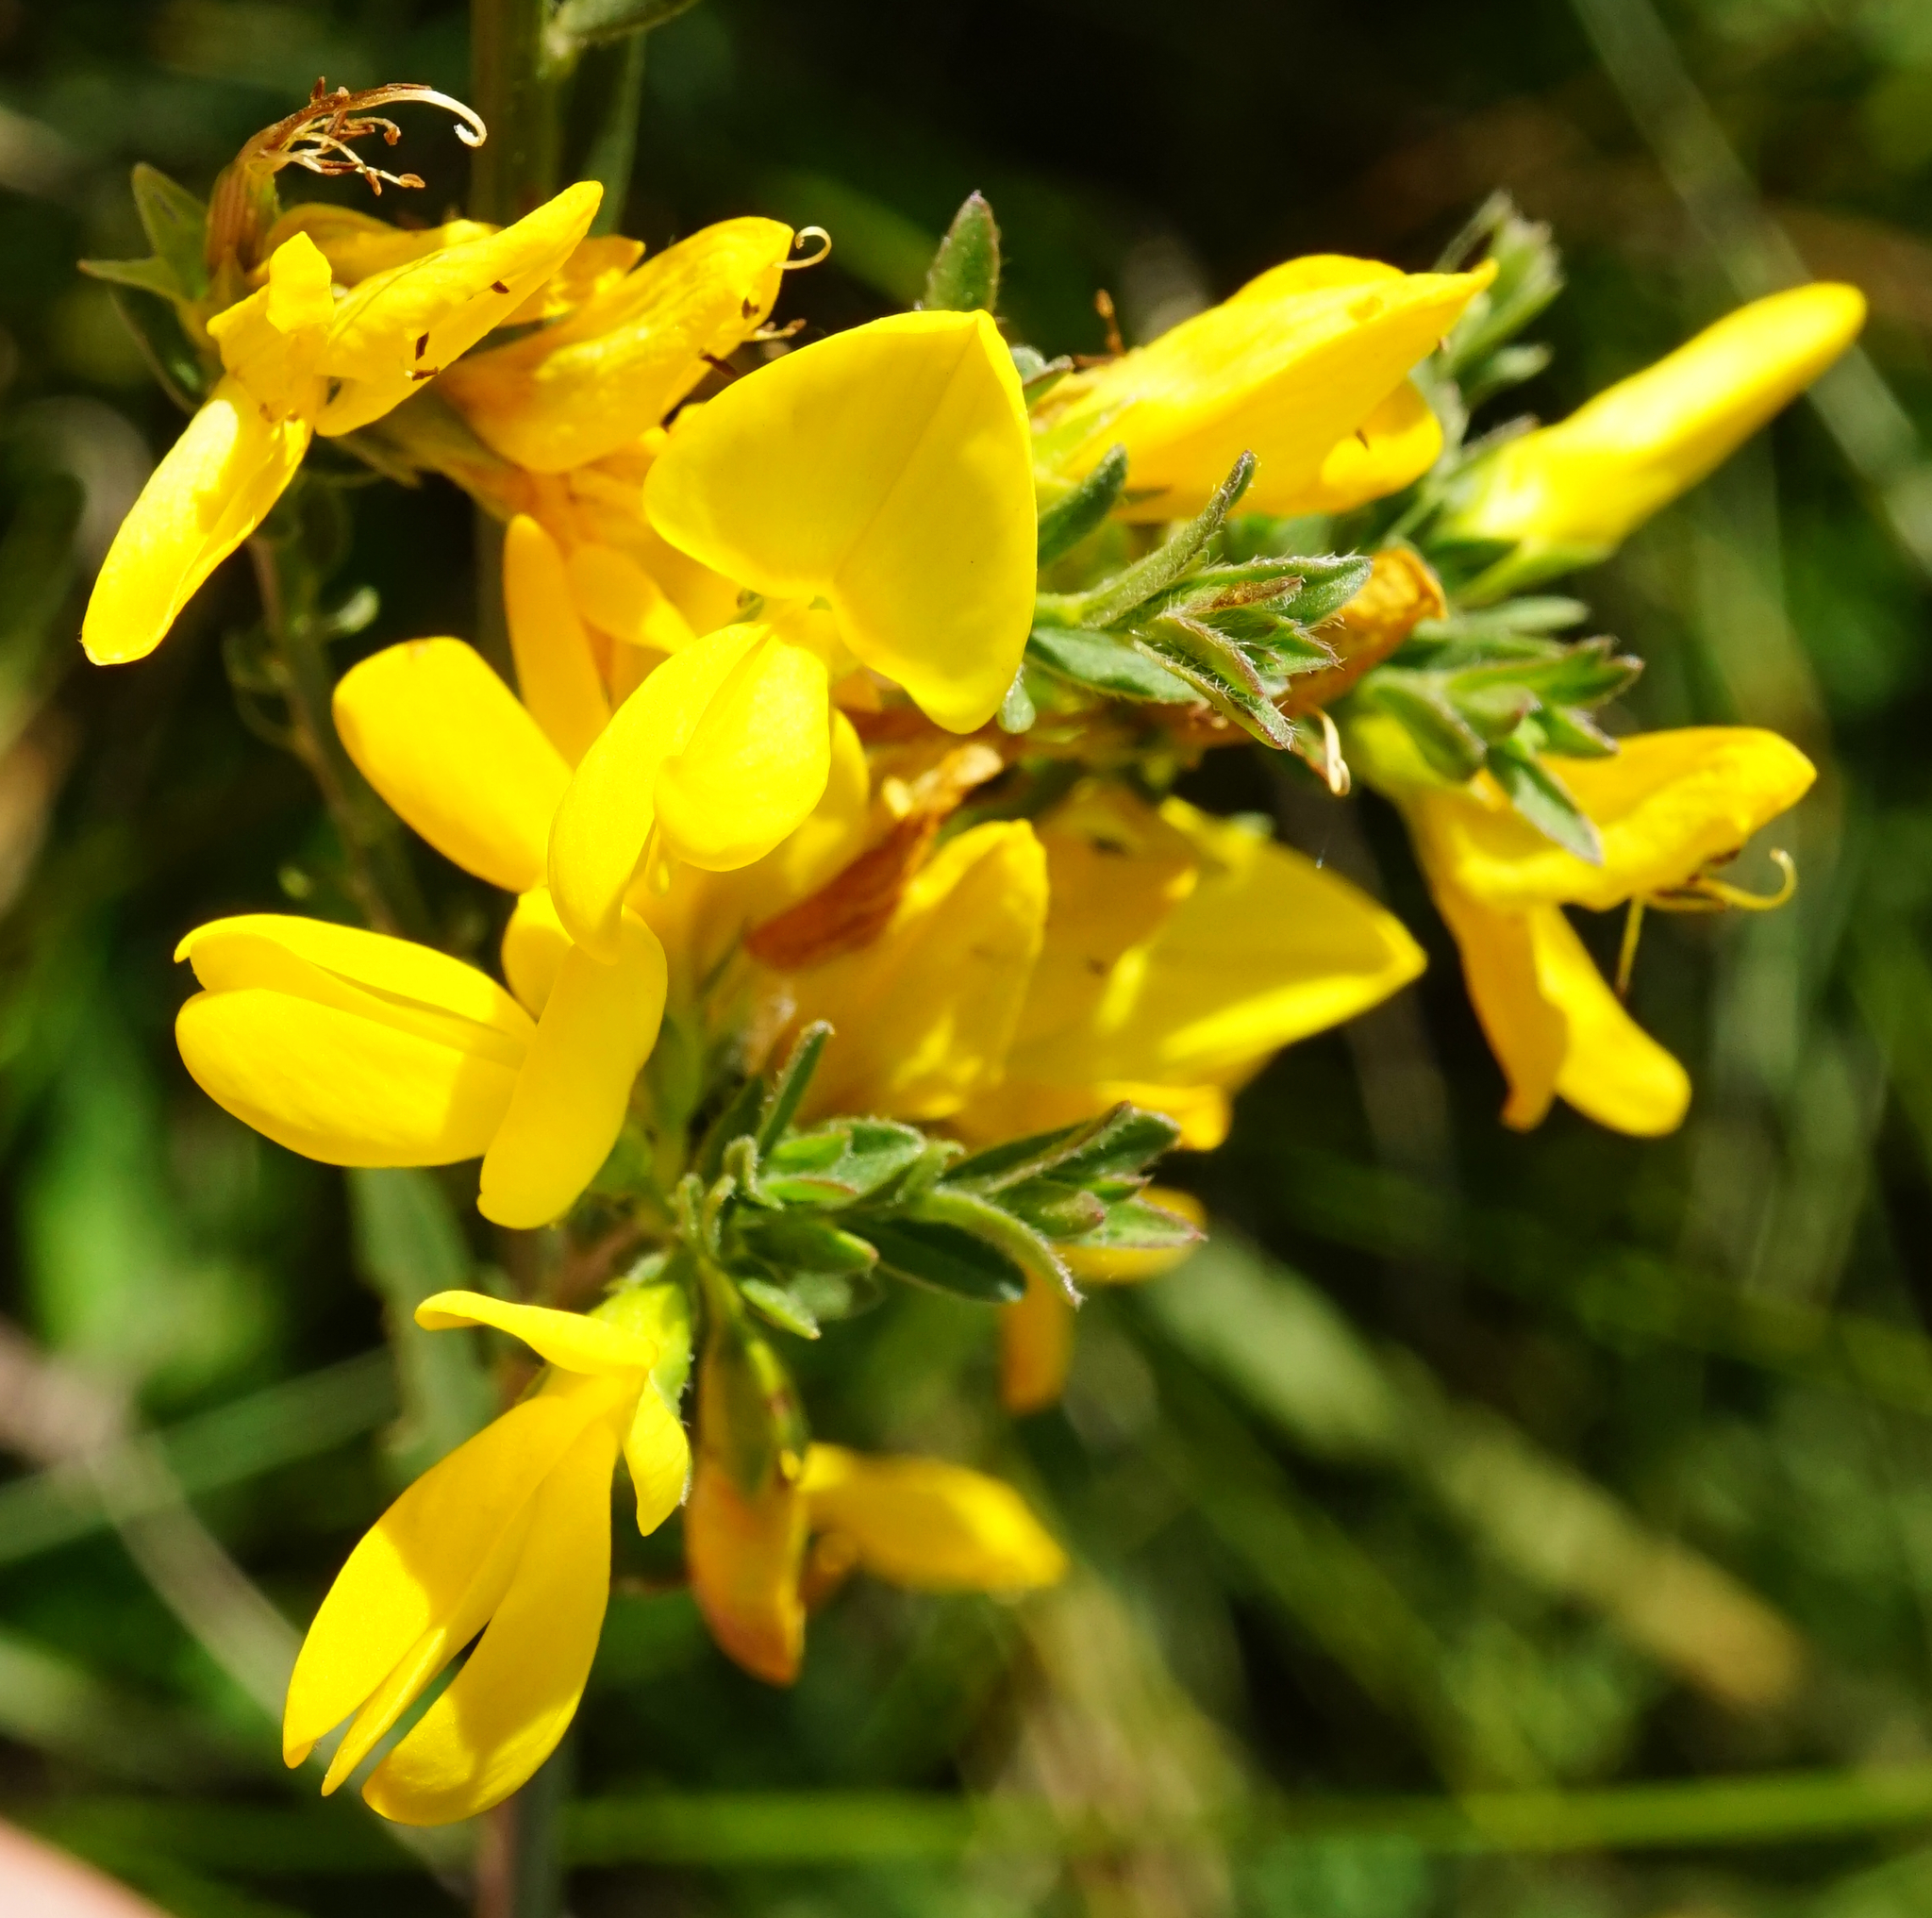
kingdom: Plantae
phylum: Tracheophyta
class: Magnoliopsida
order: Fabales
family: Fabaceae
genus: Genista
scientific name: Genista tinctoria
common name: Dyer's greenweed
